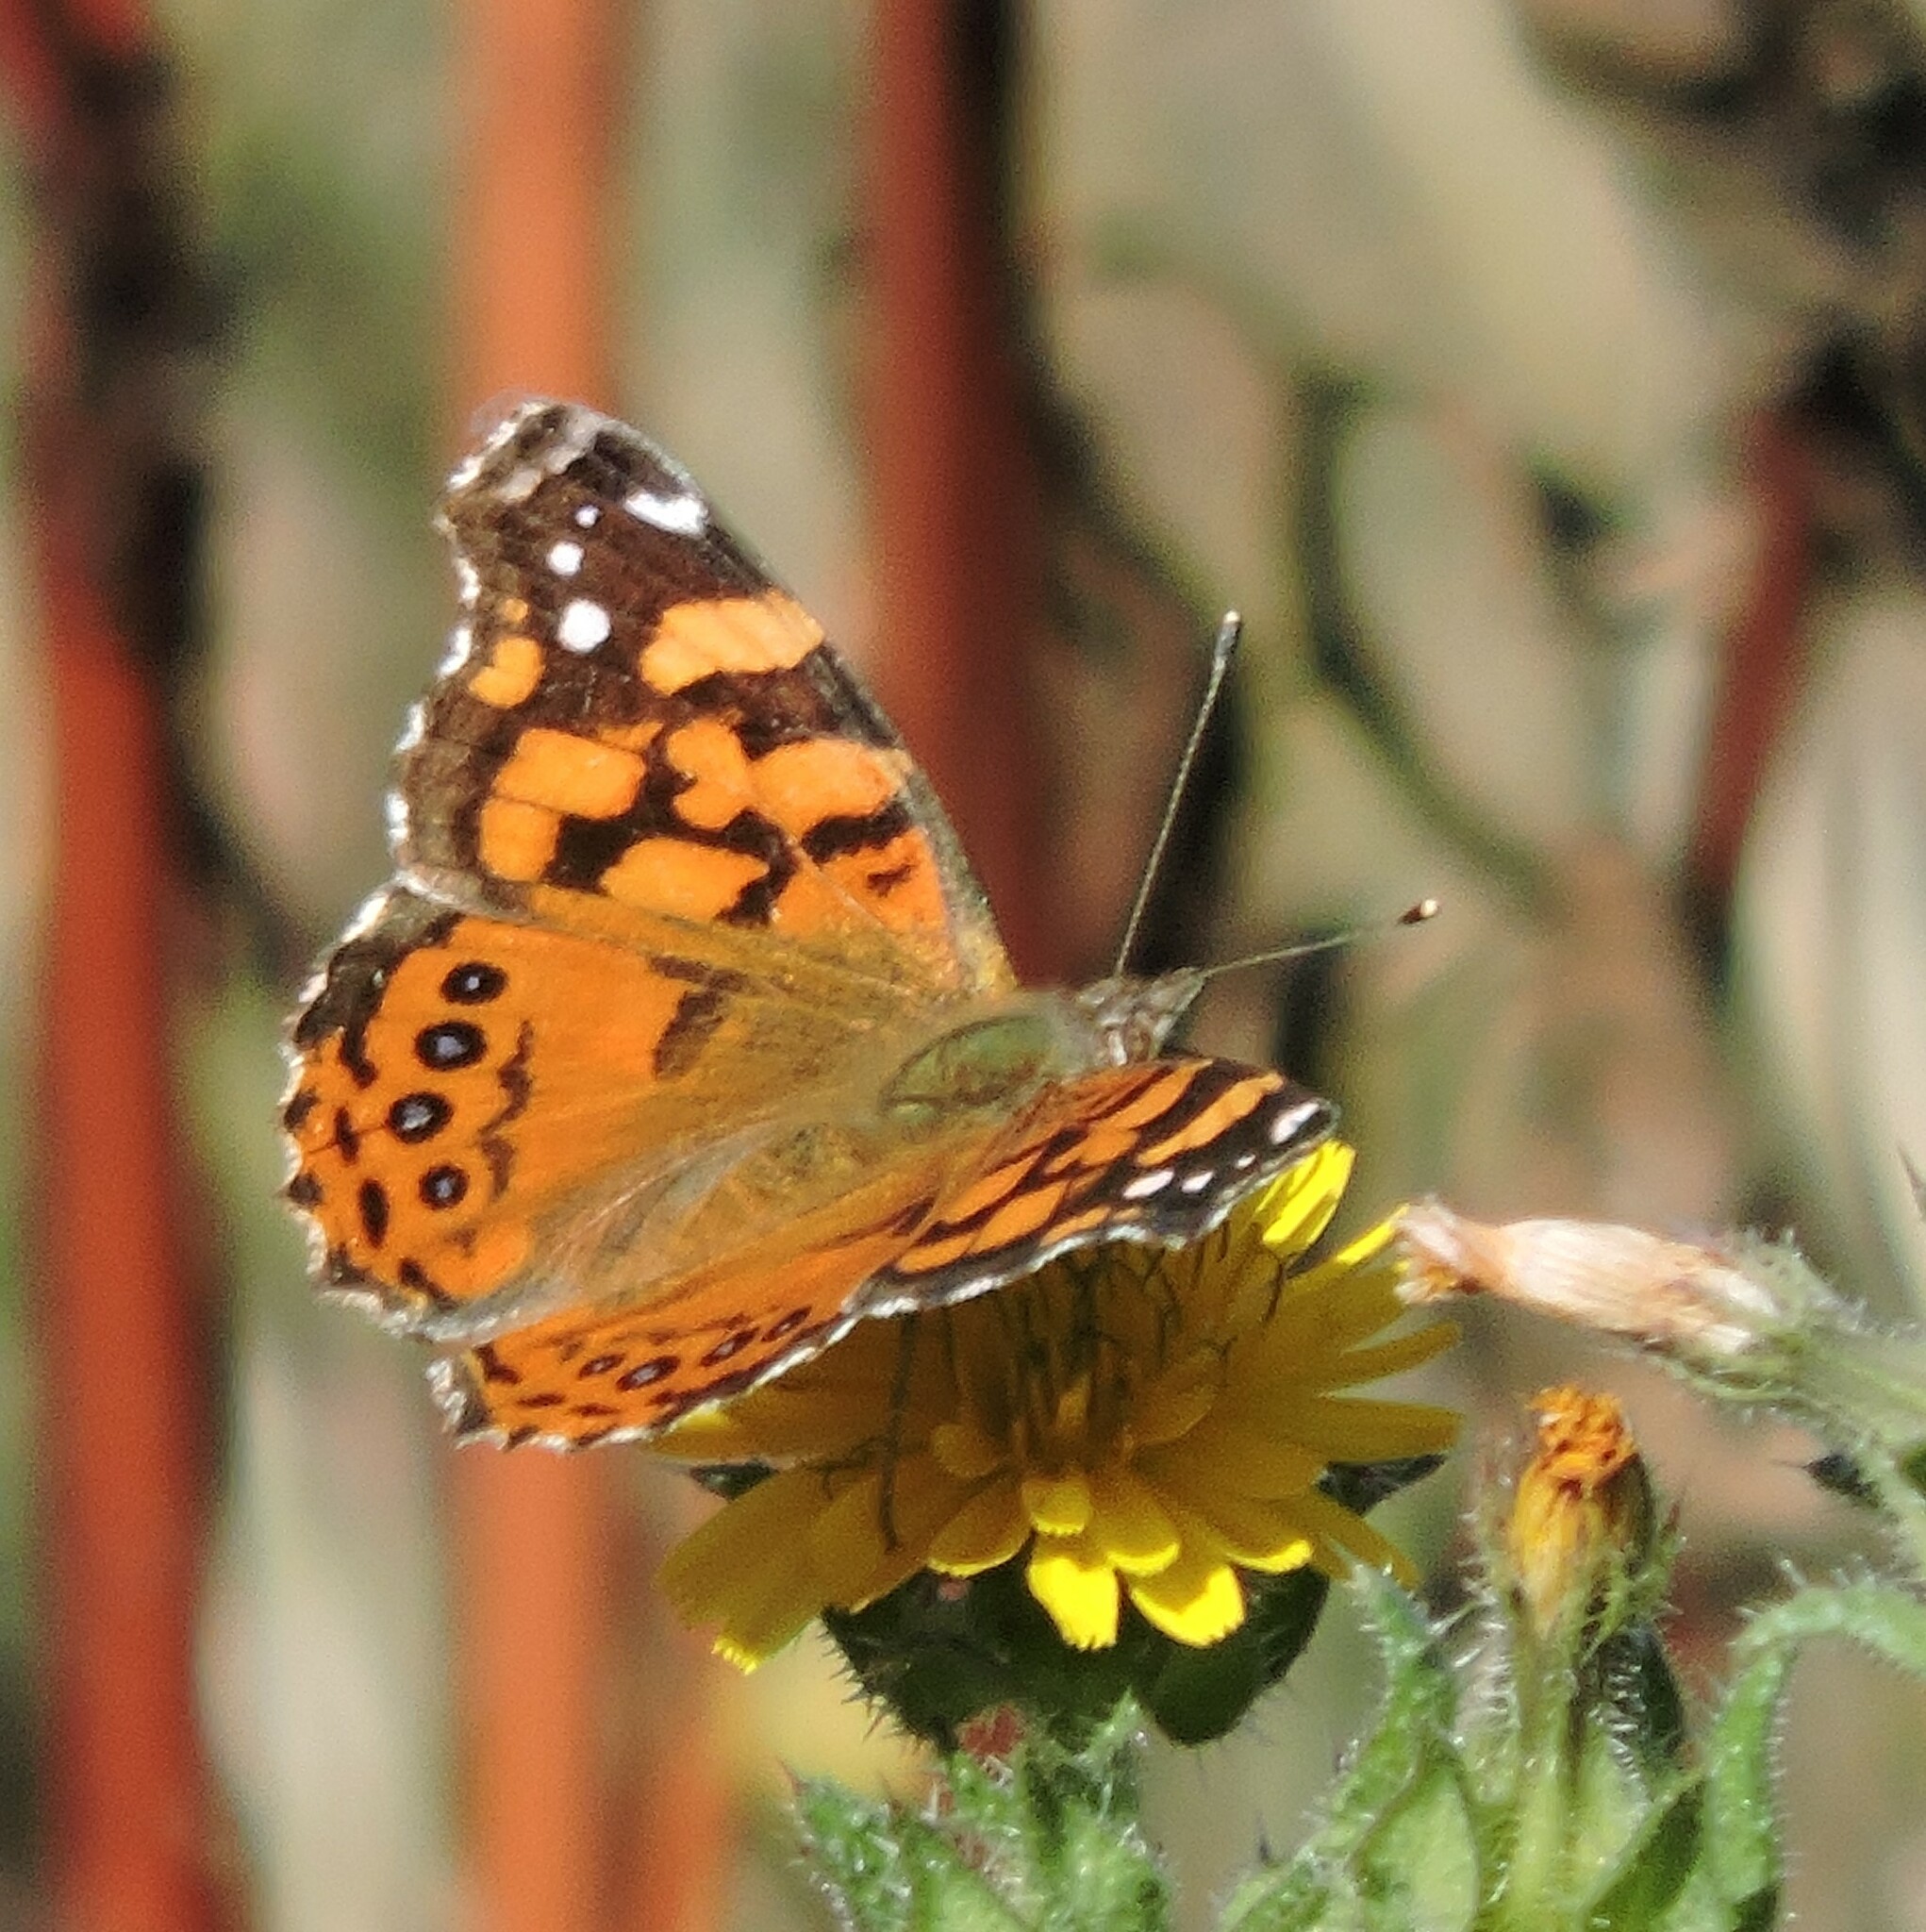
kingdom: Animalia
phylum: Arthropoda
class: Insecta
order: Lepidoptera
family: Nymphalidae
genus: Vanessa
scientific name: Vanessa annabella
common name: West coast lady
